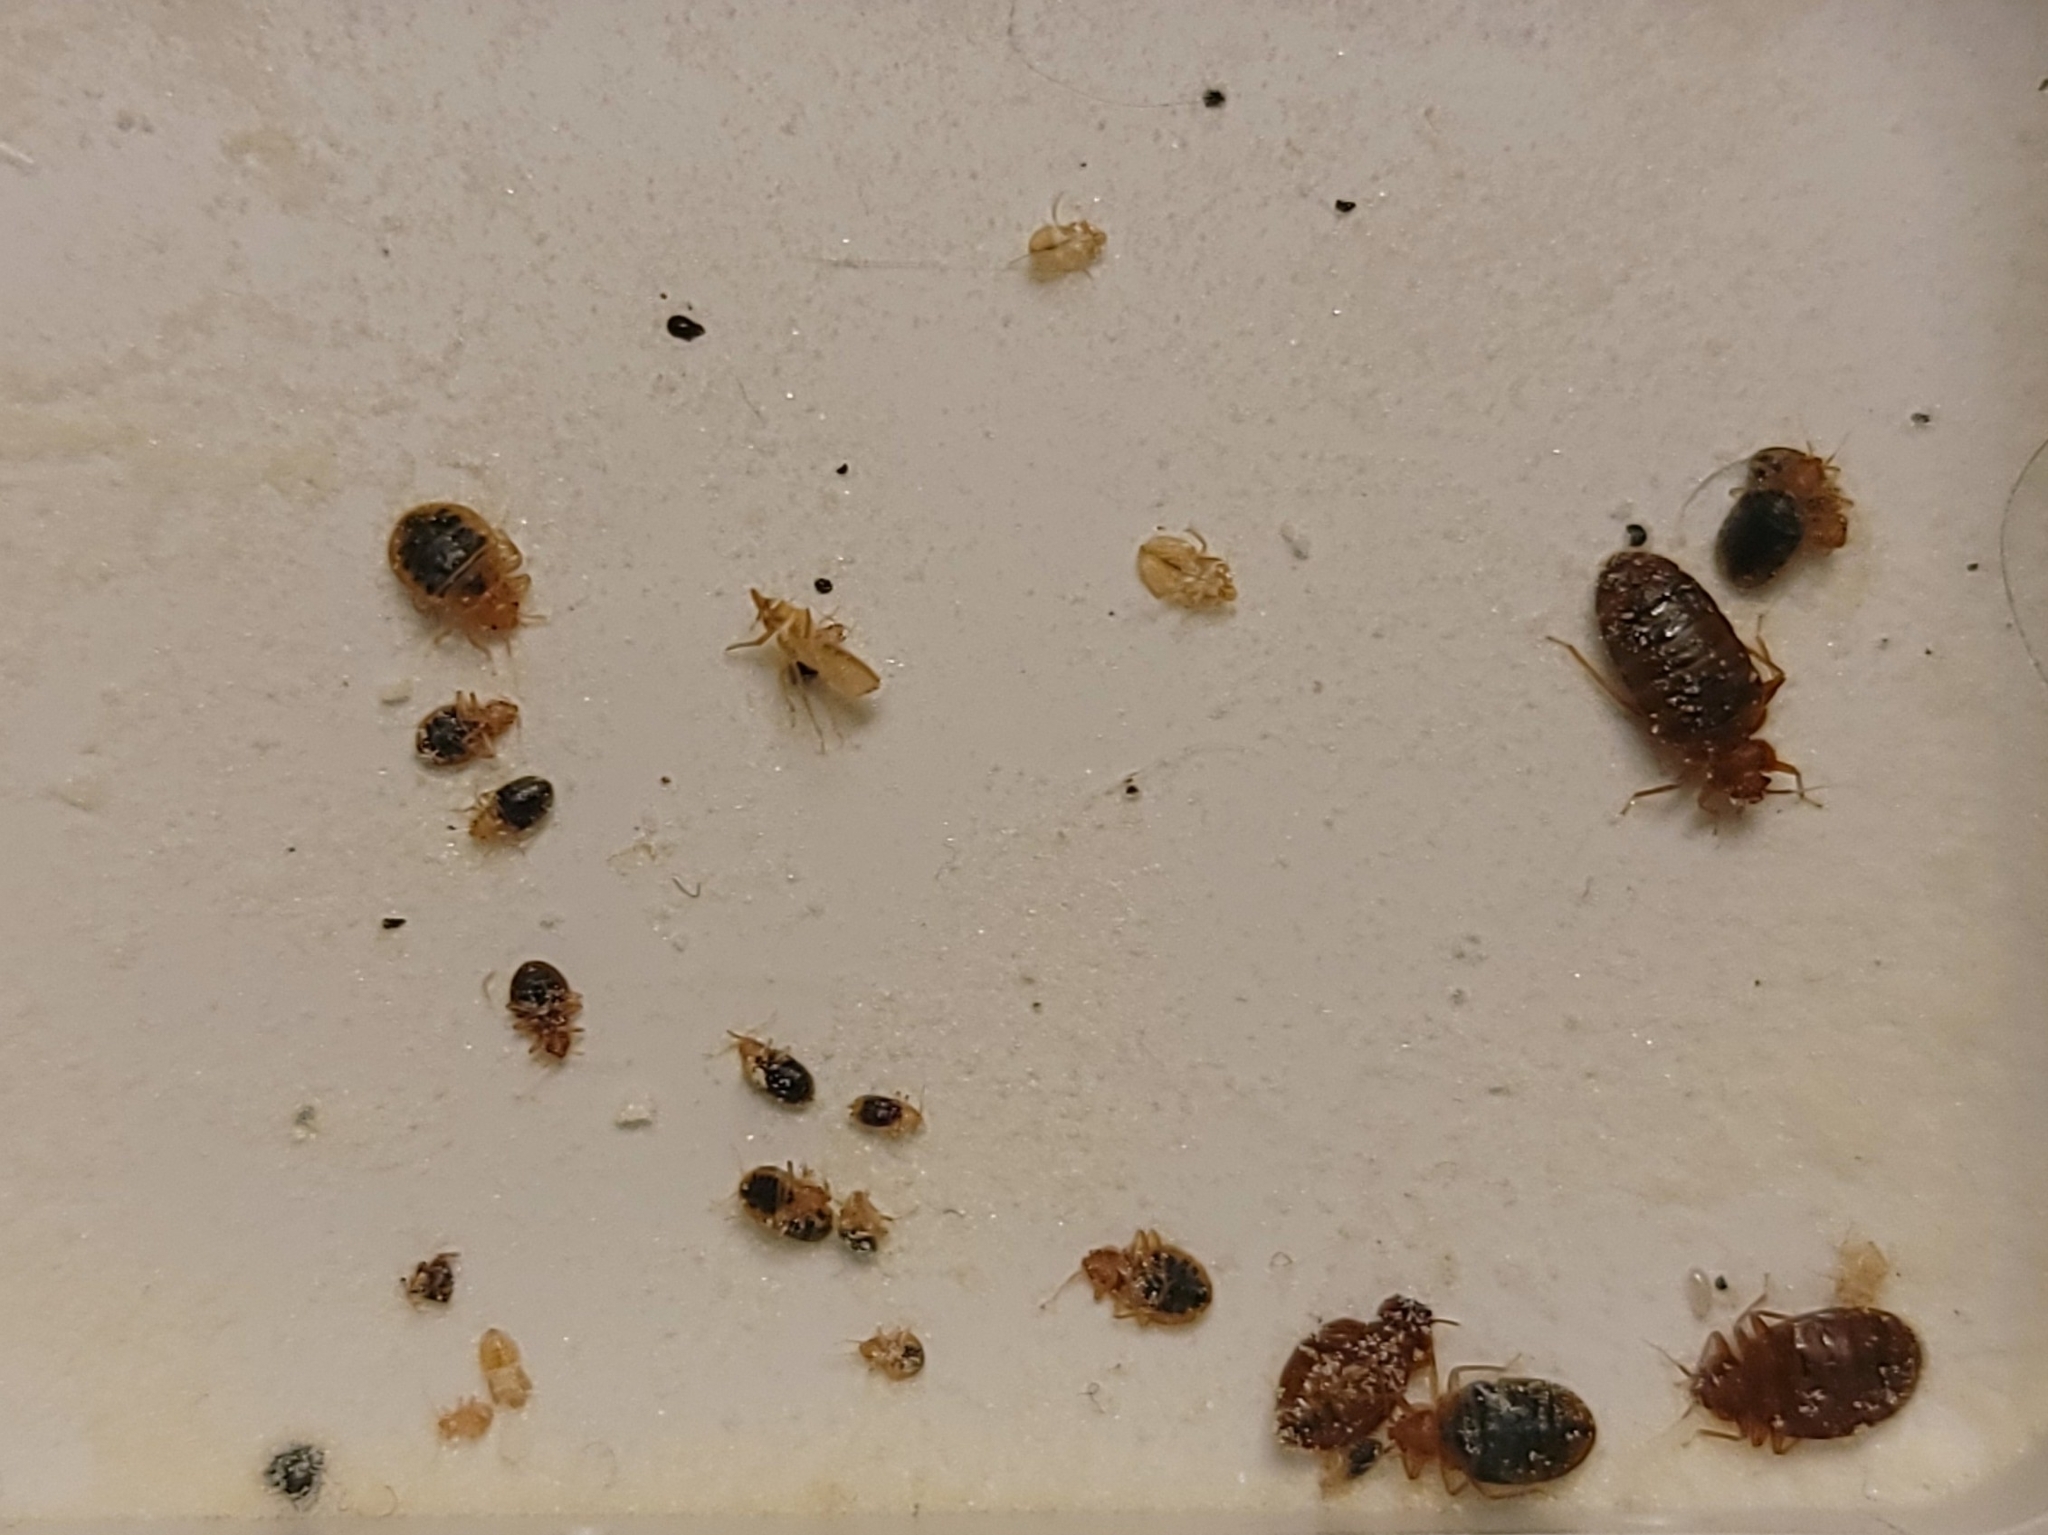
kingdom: Animalia
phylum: Arthropoda
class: Insecta
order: Hemiptera
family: Cimicidae
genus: Cimex
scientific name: Cimex lectularius
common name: Bed bug
